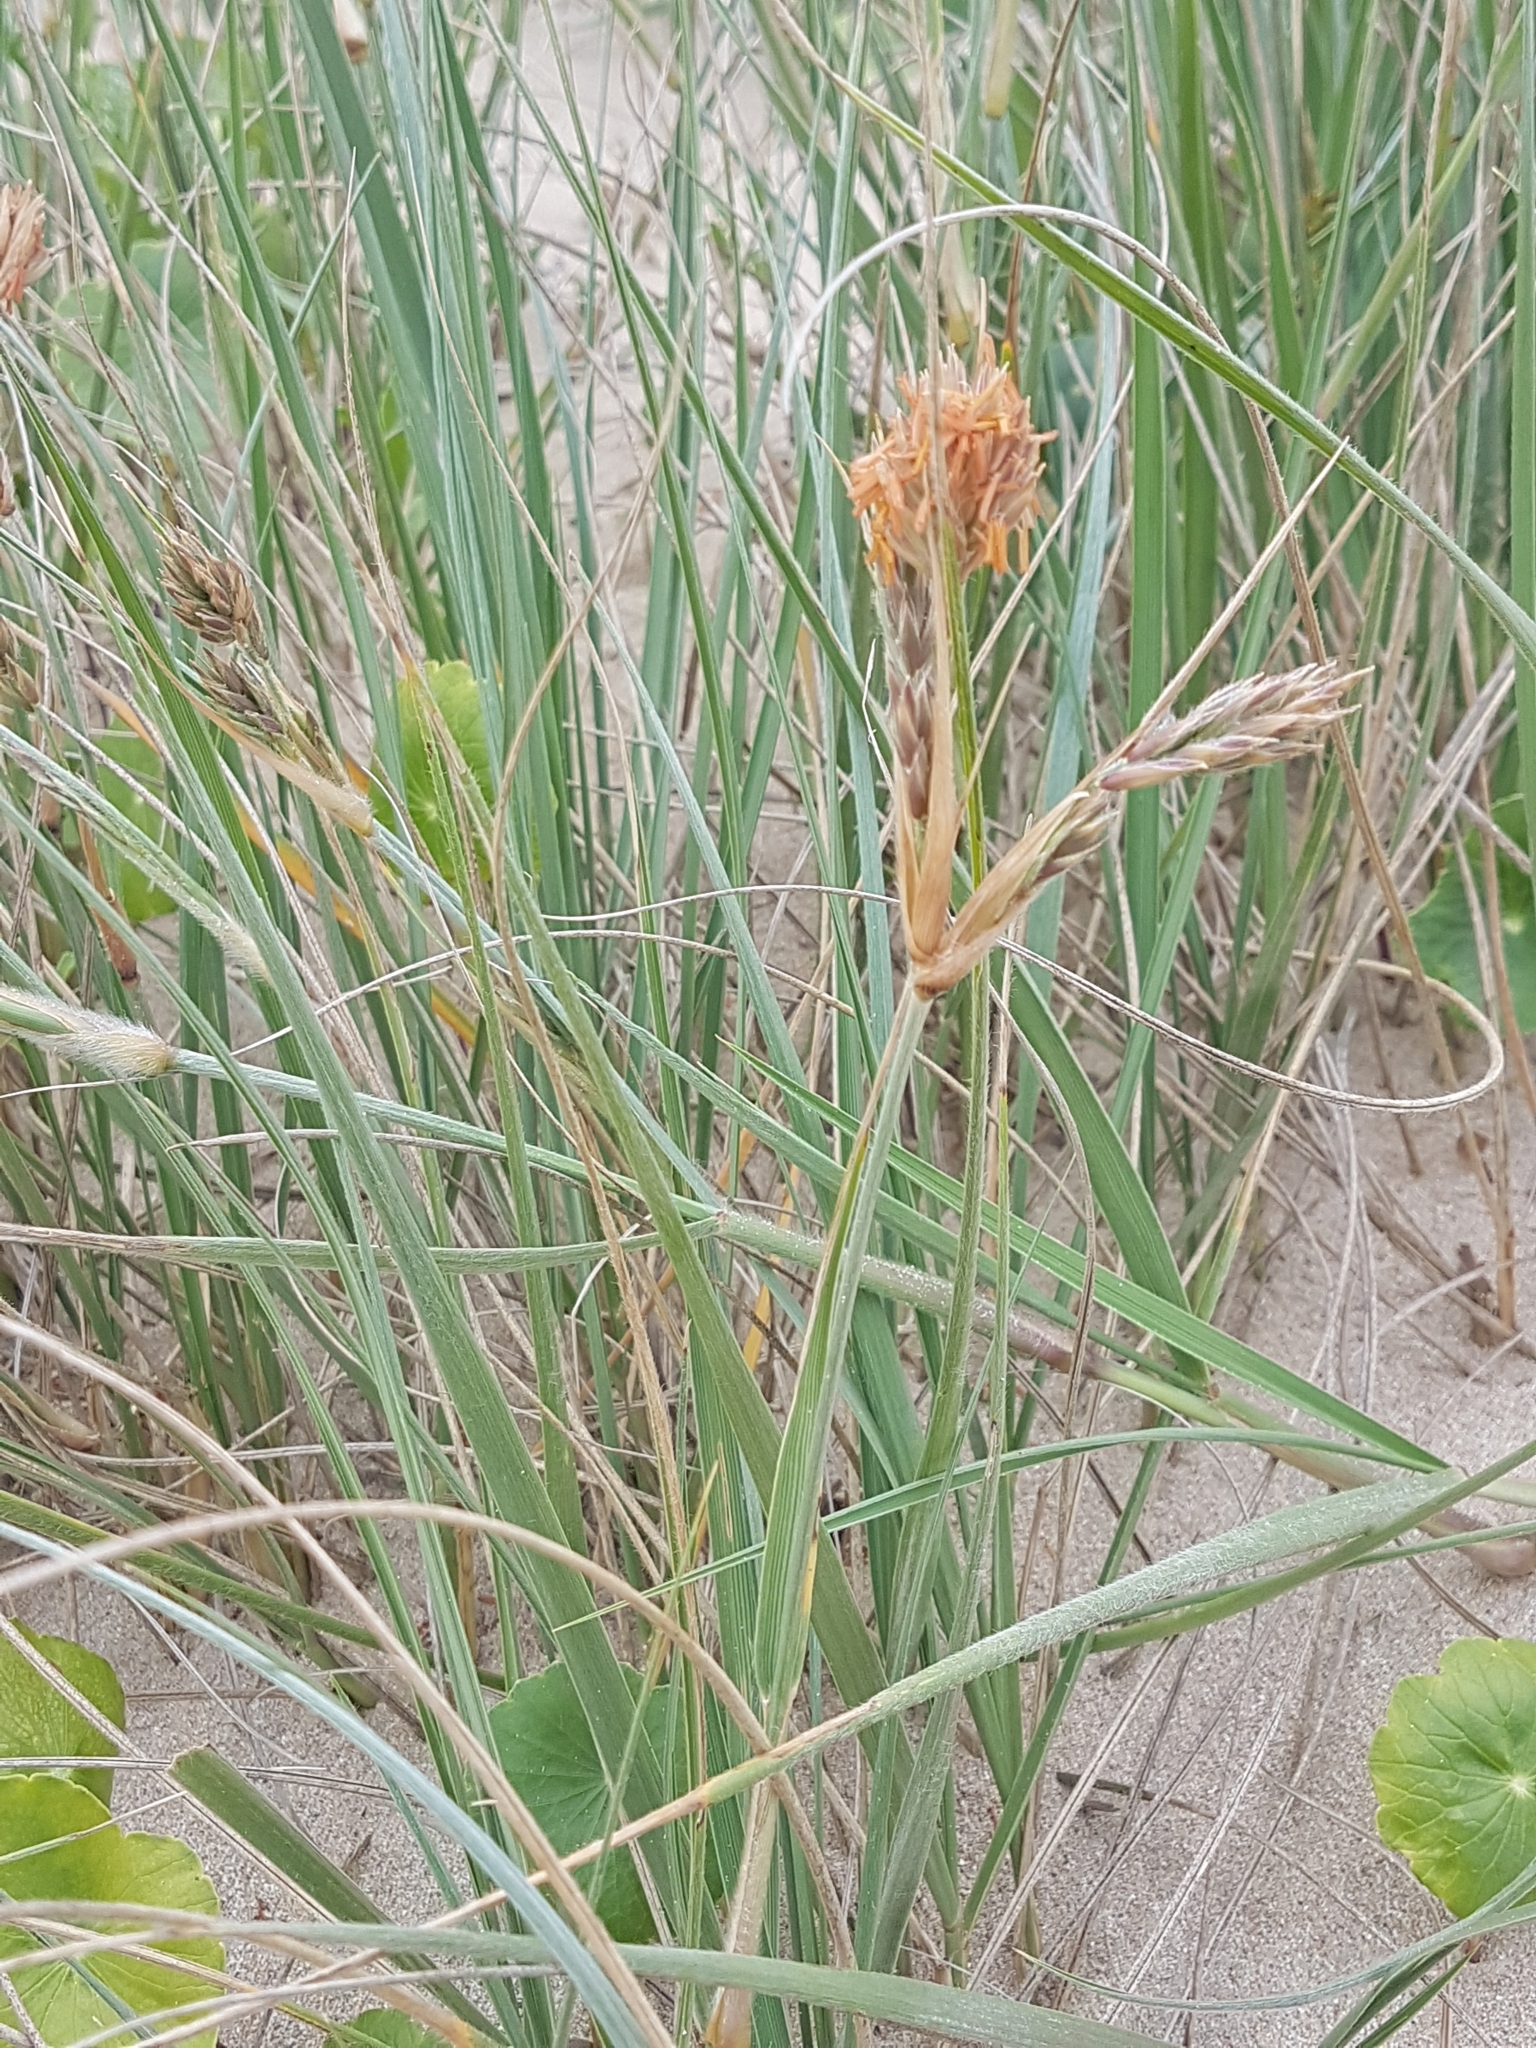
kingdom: Plantae
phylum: Tracheophyta
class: Liliopsida
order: Poales
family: Poaceae
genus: Spinifex
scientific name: Spinifex sericeus
